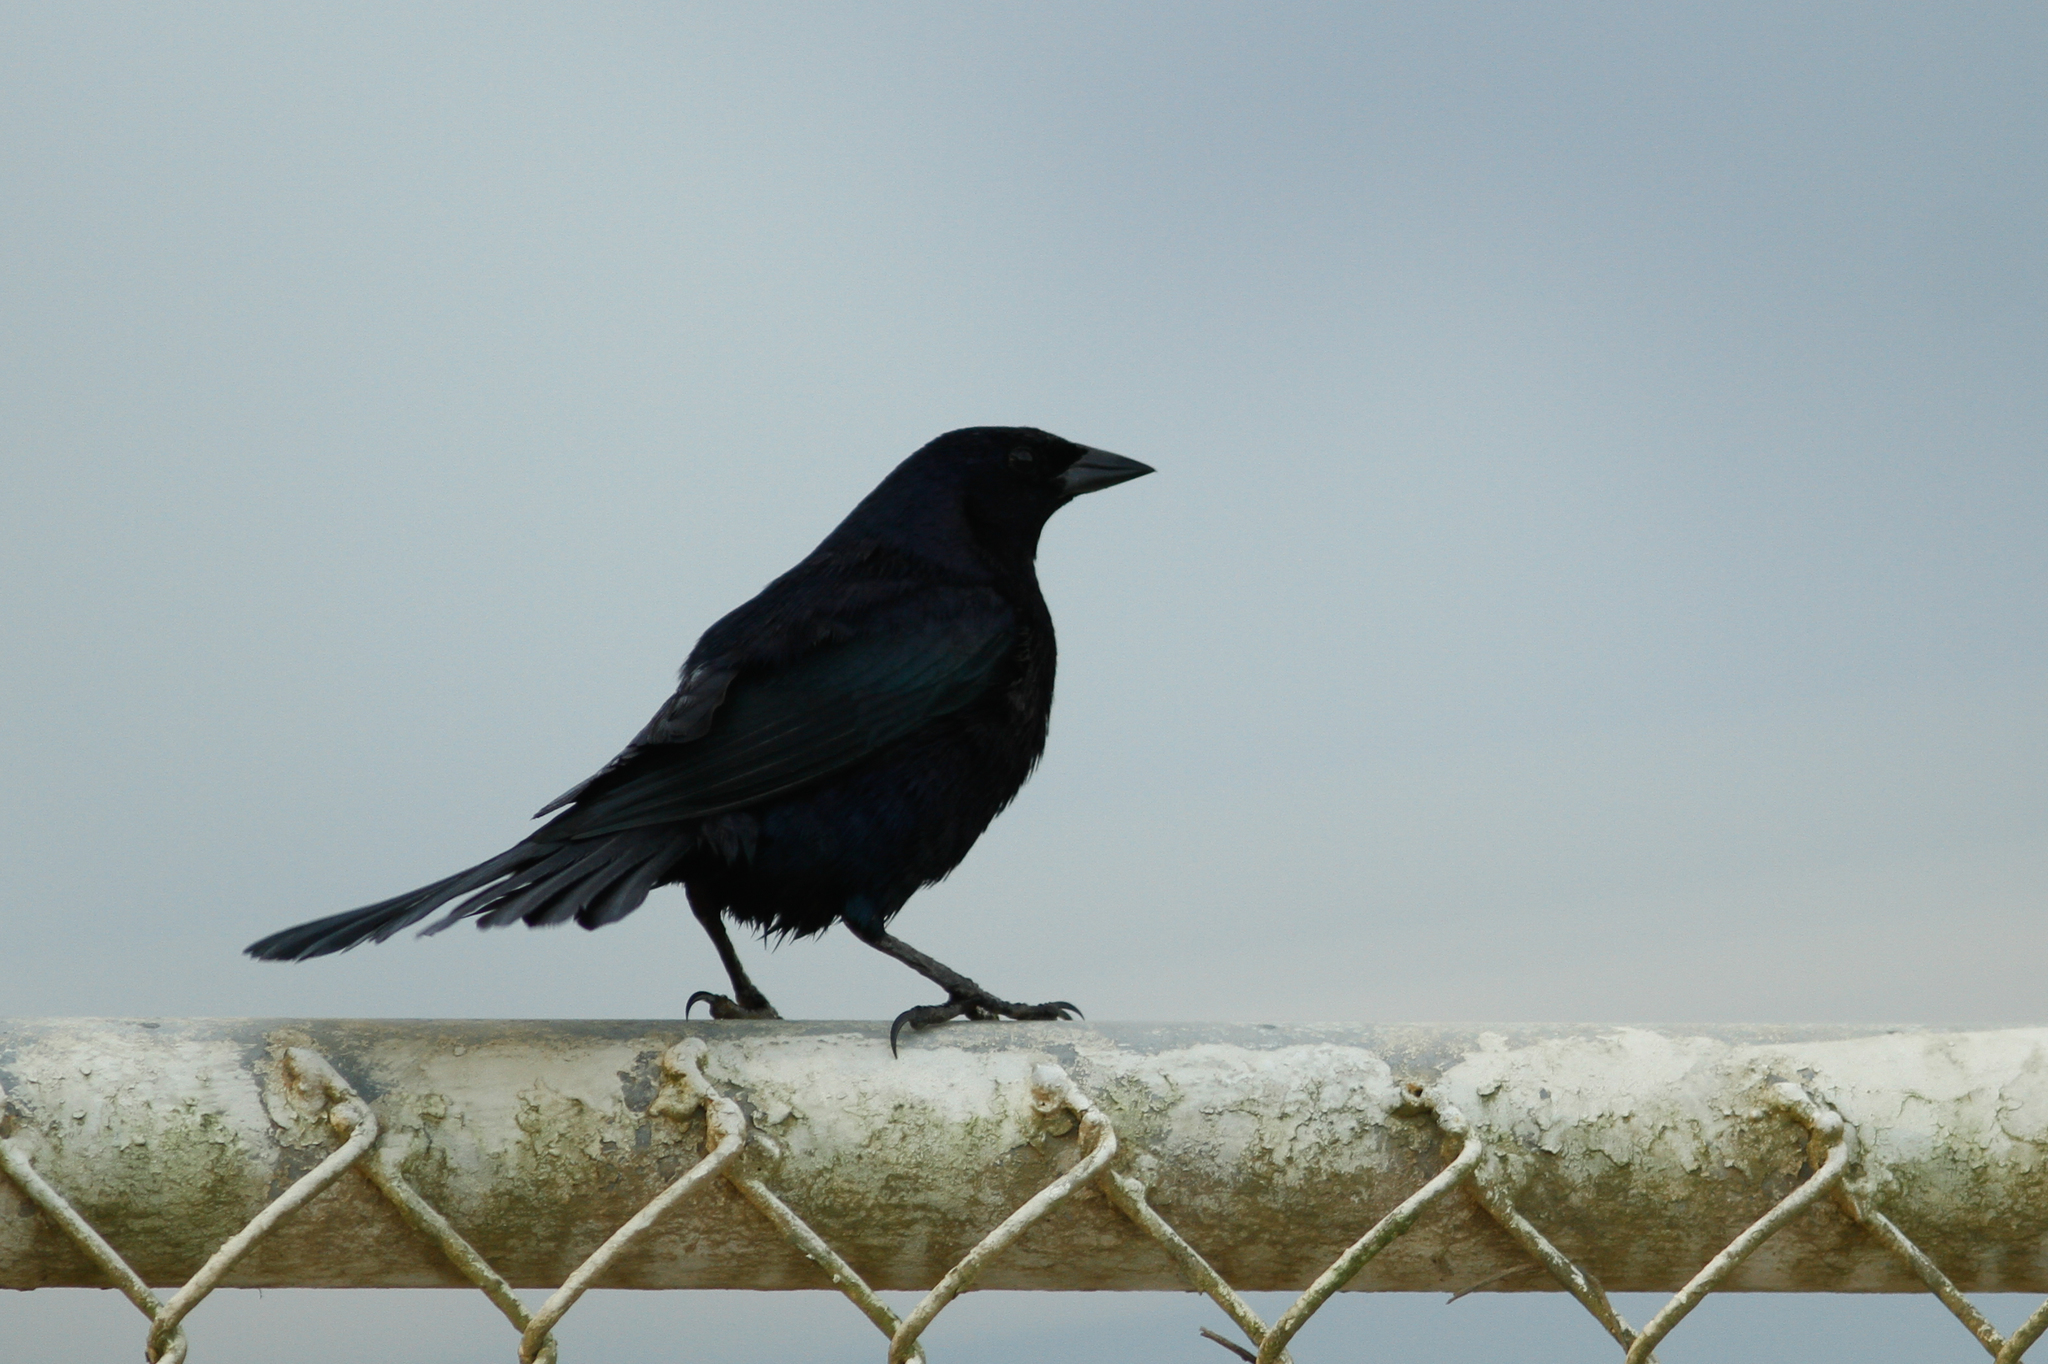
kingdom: Animalia
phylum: Chordata
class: Aves
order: Passeriformes
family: Icteridae
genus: Dives
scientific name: Dives warczewiczi
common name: Scrub blackbird
